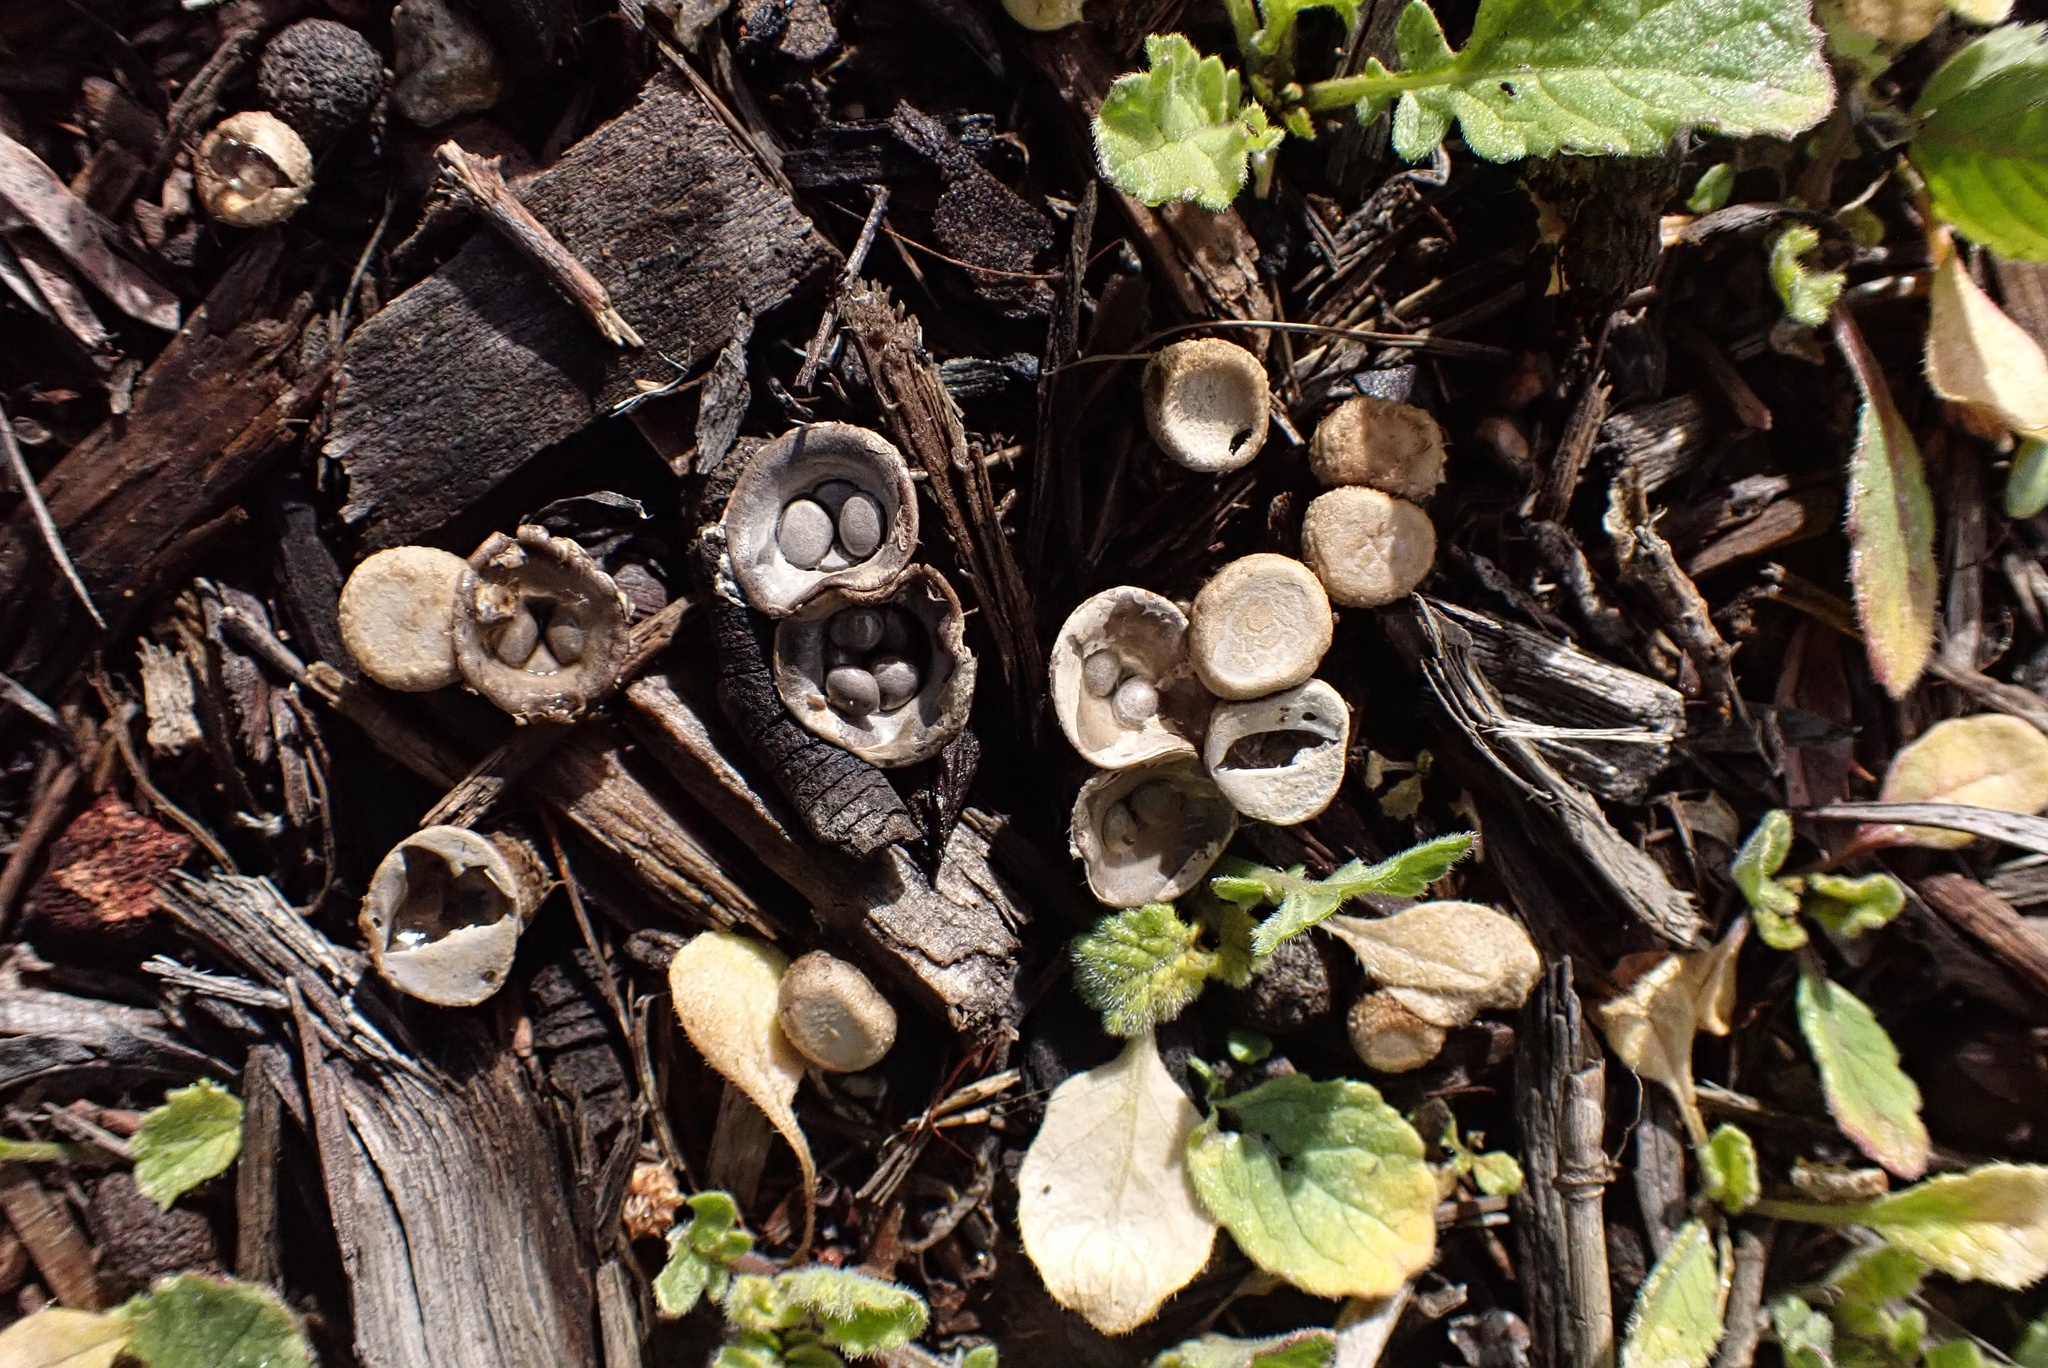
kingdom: Fungi
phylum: Basidiomycota
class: Agaricomycetes
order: Agaricales
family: Agaricaceae
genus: Cyathus
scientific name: Cyathus olla
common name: Field bird's nest
